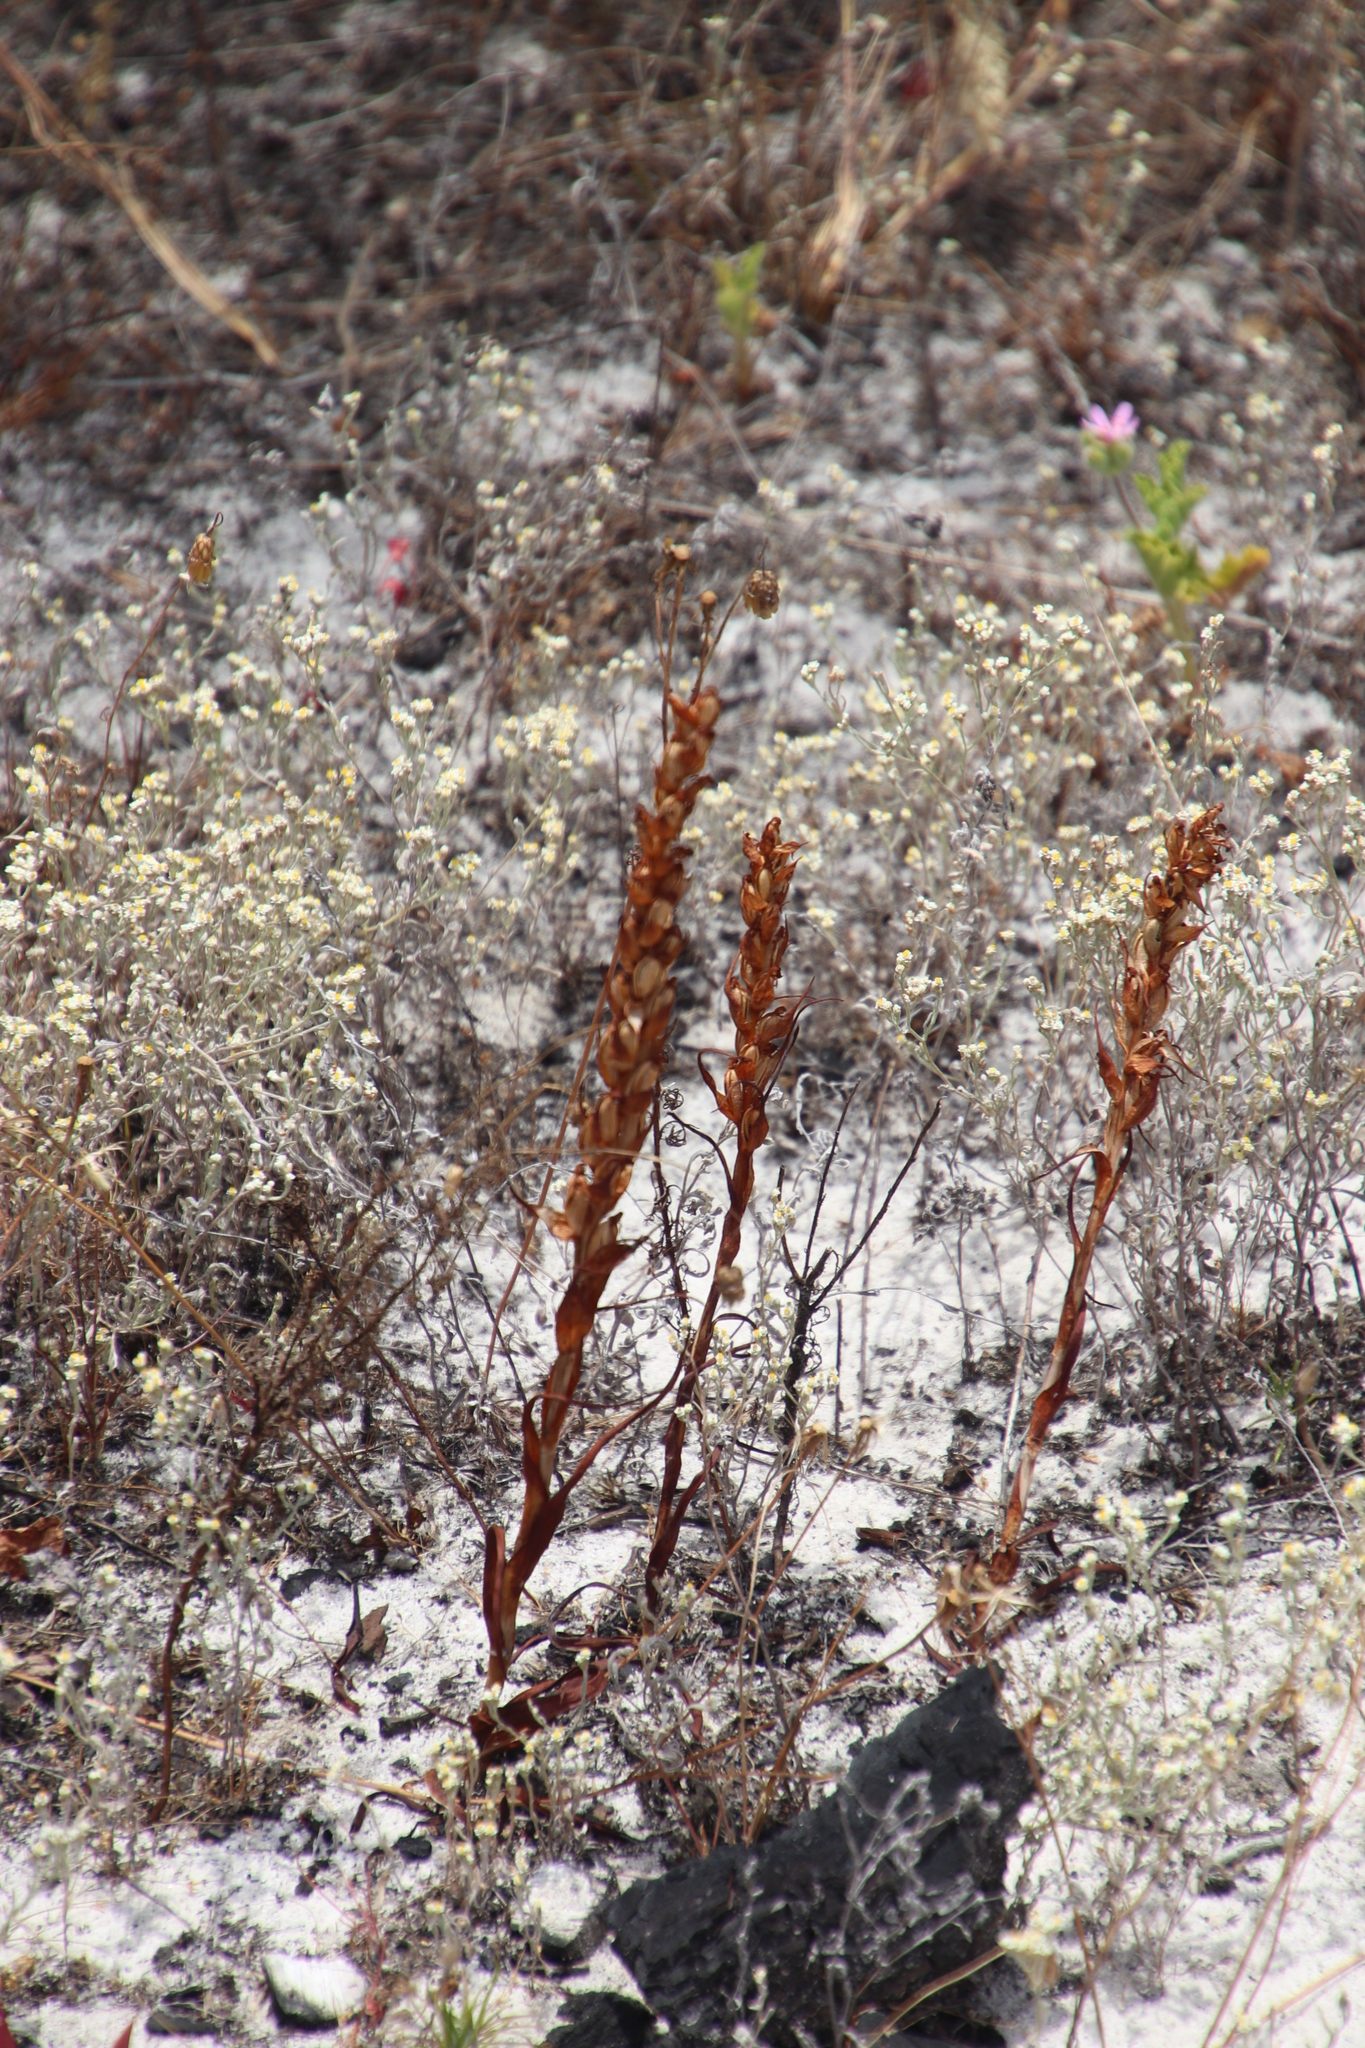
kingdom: Plantae
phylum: Tracheophyta
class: Liliopsida
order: Asparagales
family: Orchidaceae
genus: Disa
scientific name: Disa bracteata
